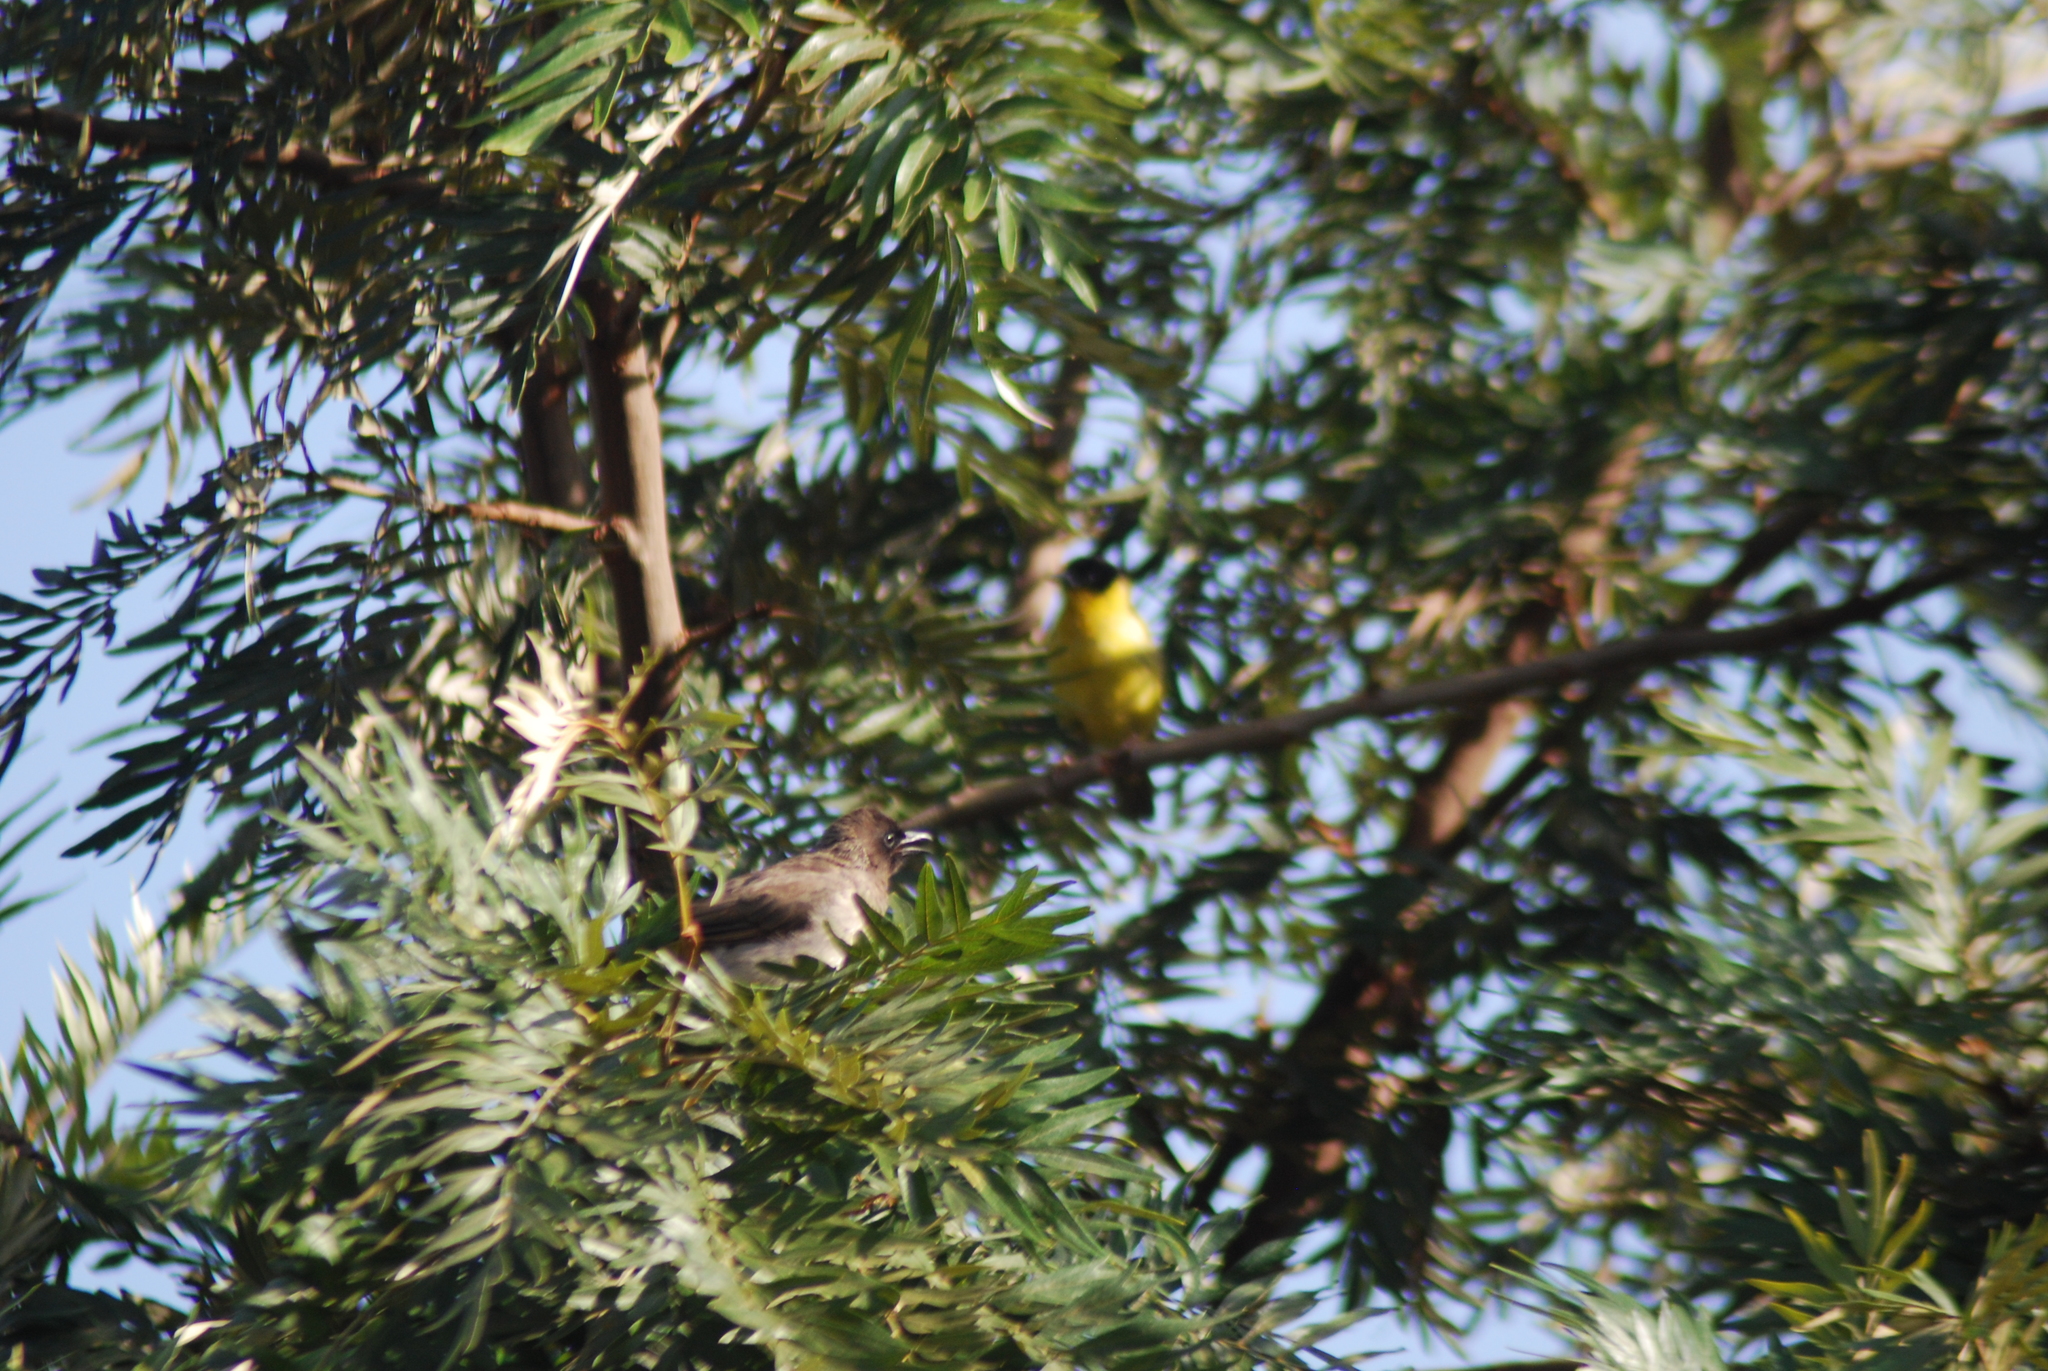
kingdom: Animalia
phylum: Chordata
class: Aves
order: Passeriformes
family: Pycnonotidae
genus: Pycnonotus
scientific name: Pycnonotus barbatus
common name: Common bulbul
